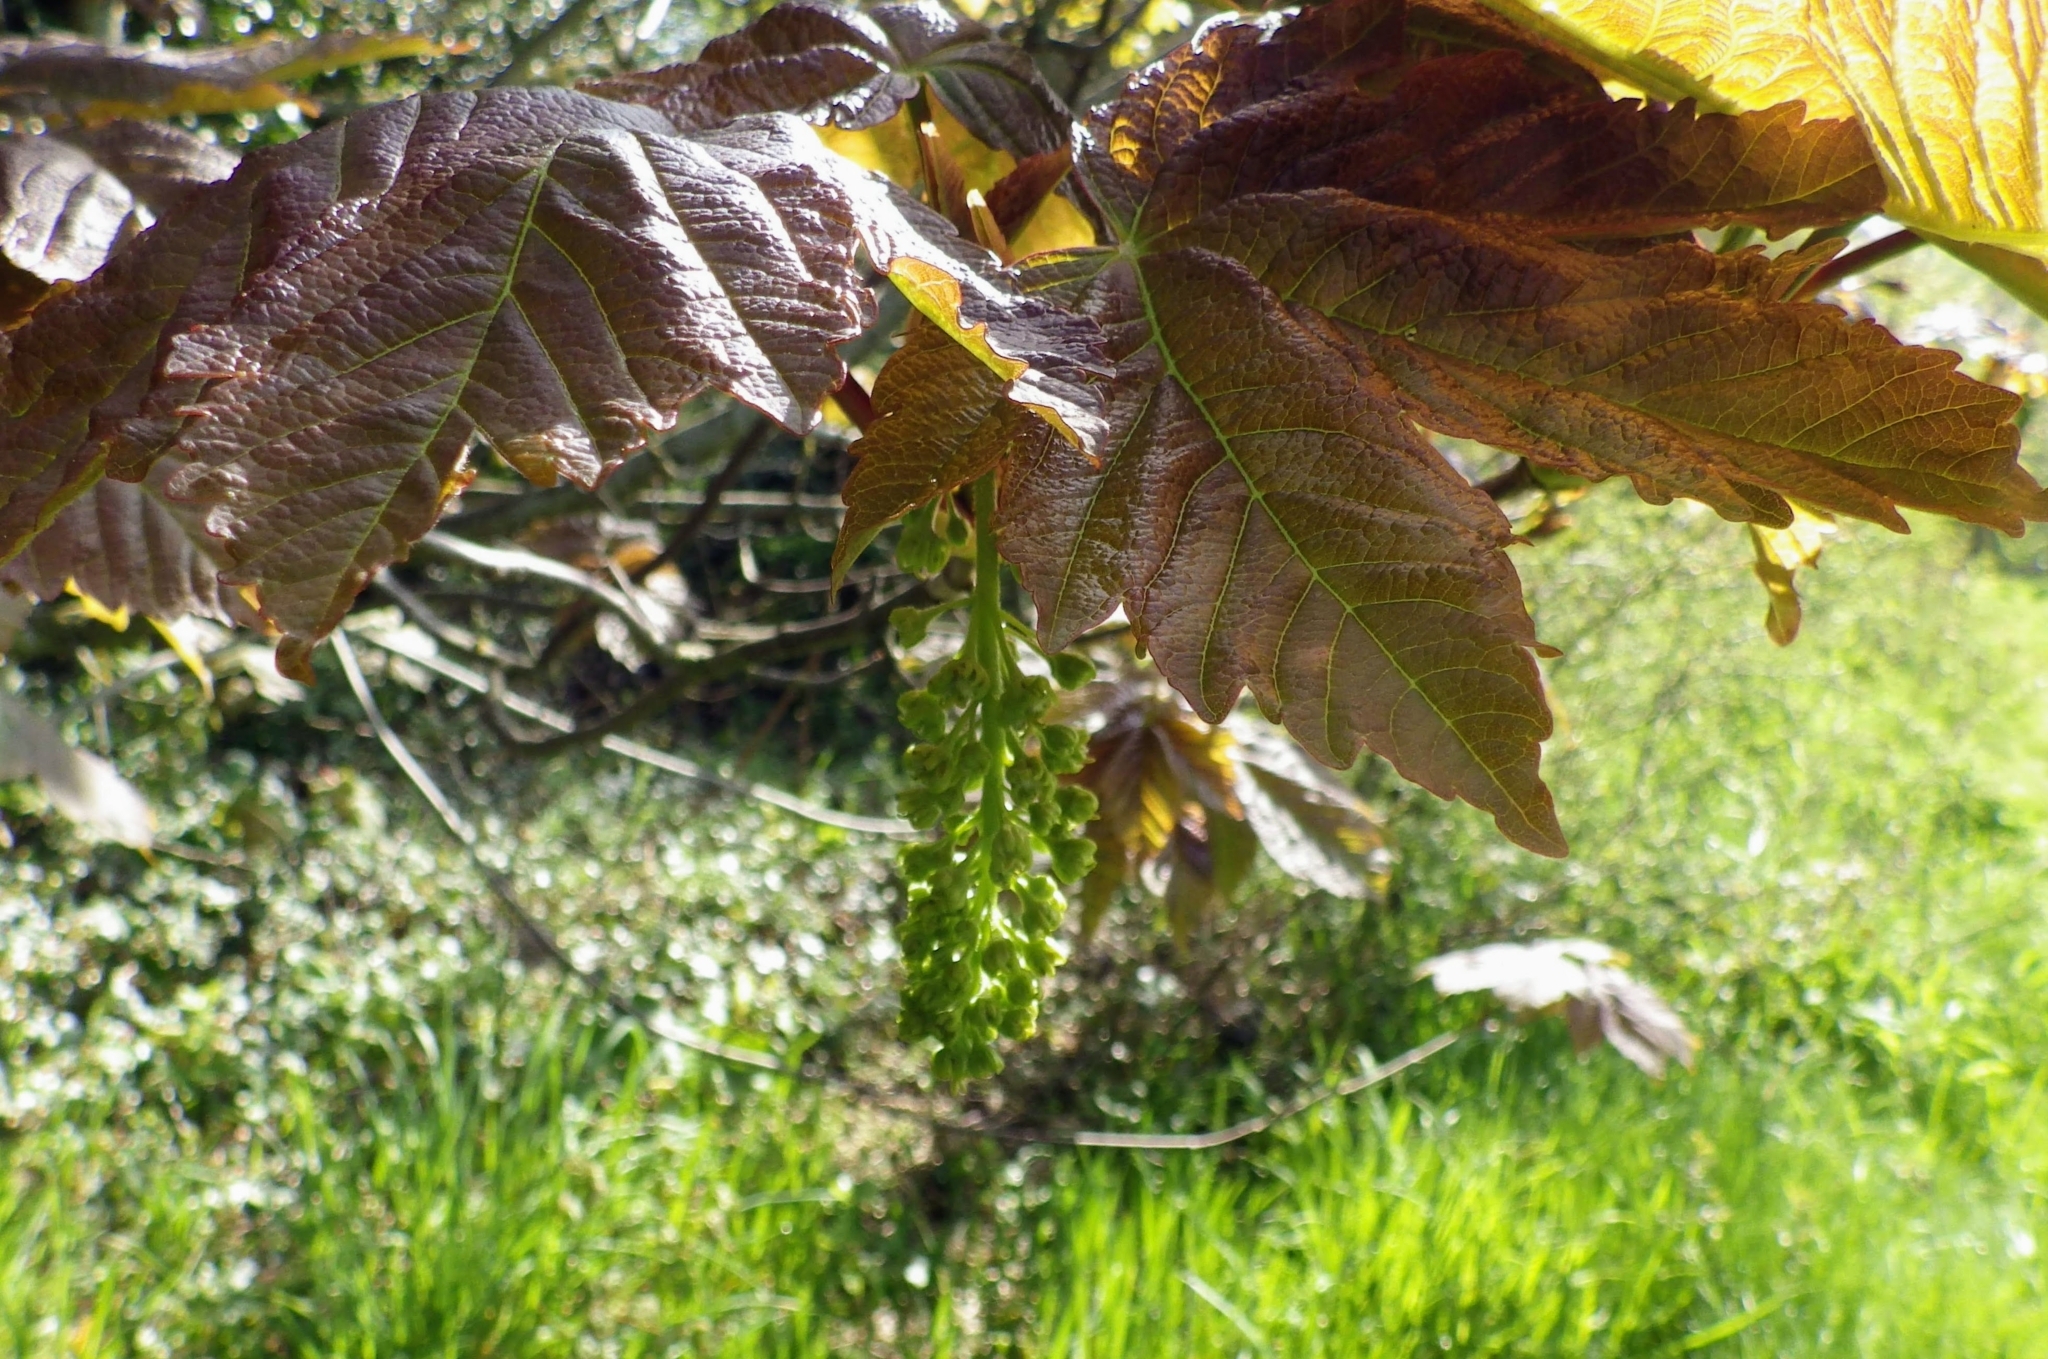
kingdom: Plantae
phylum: Tracheophyta
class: Magnoliopsida
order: Sapindales
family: Sapindaceae
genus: Acer
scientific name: Acer pseudoplatanus
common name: Sycamore
